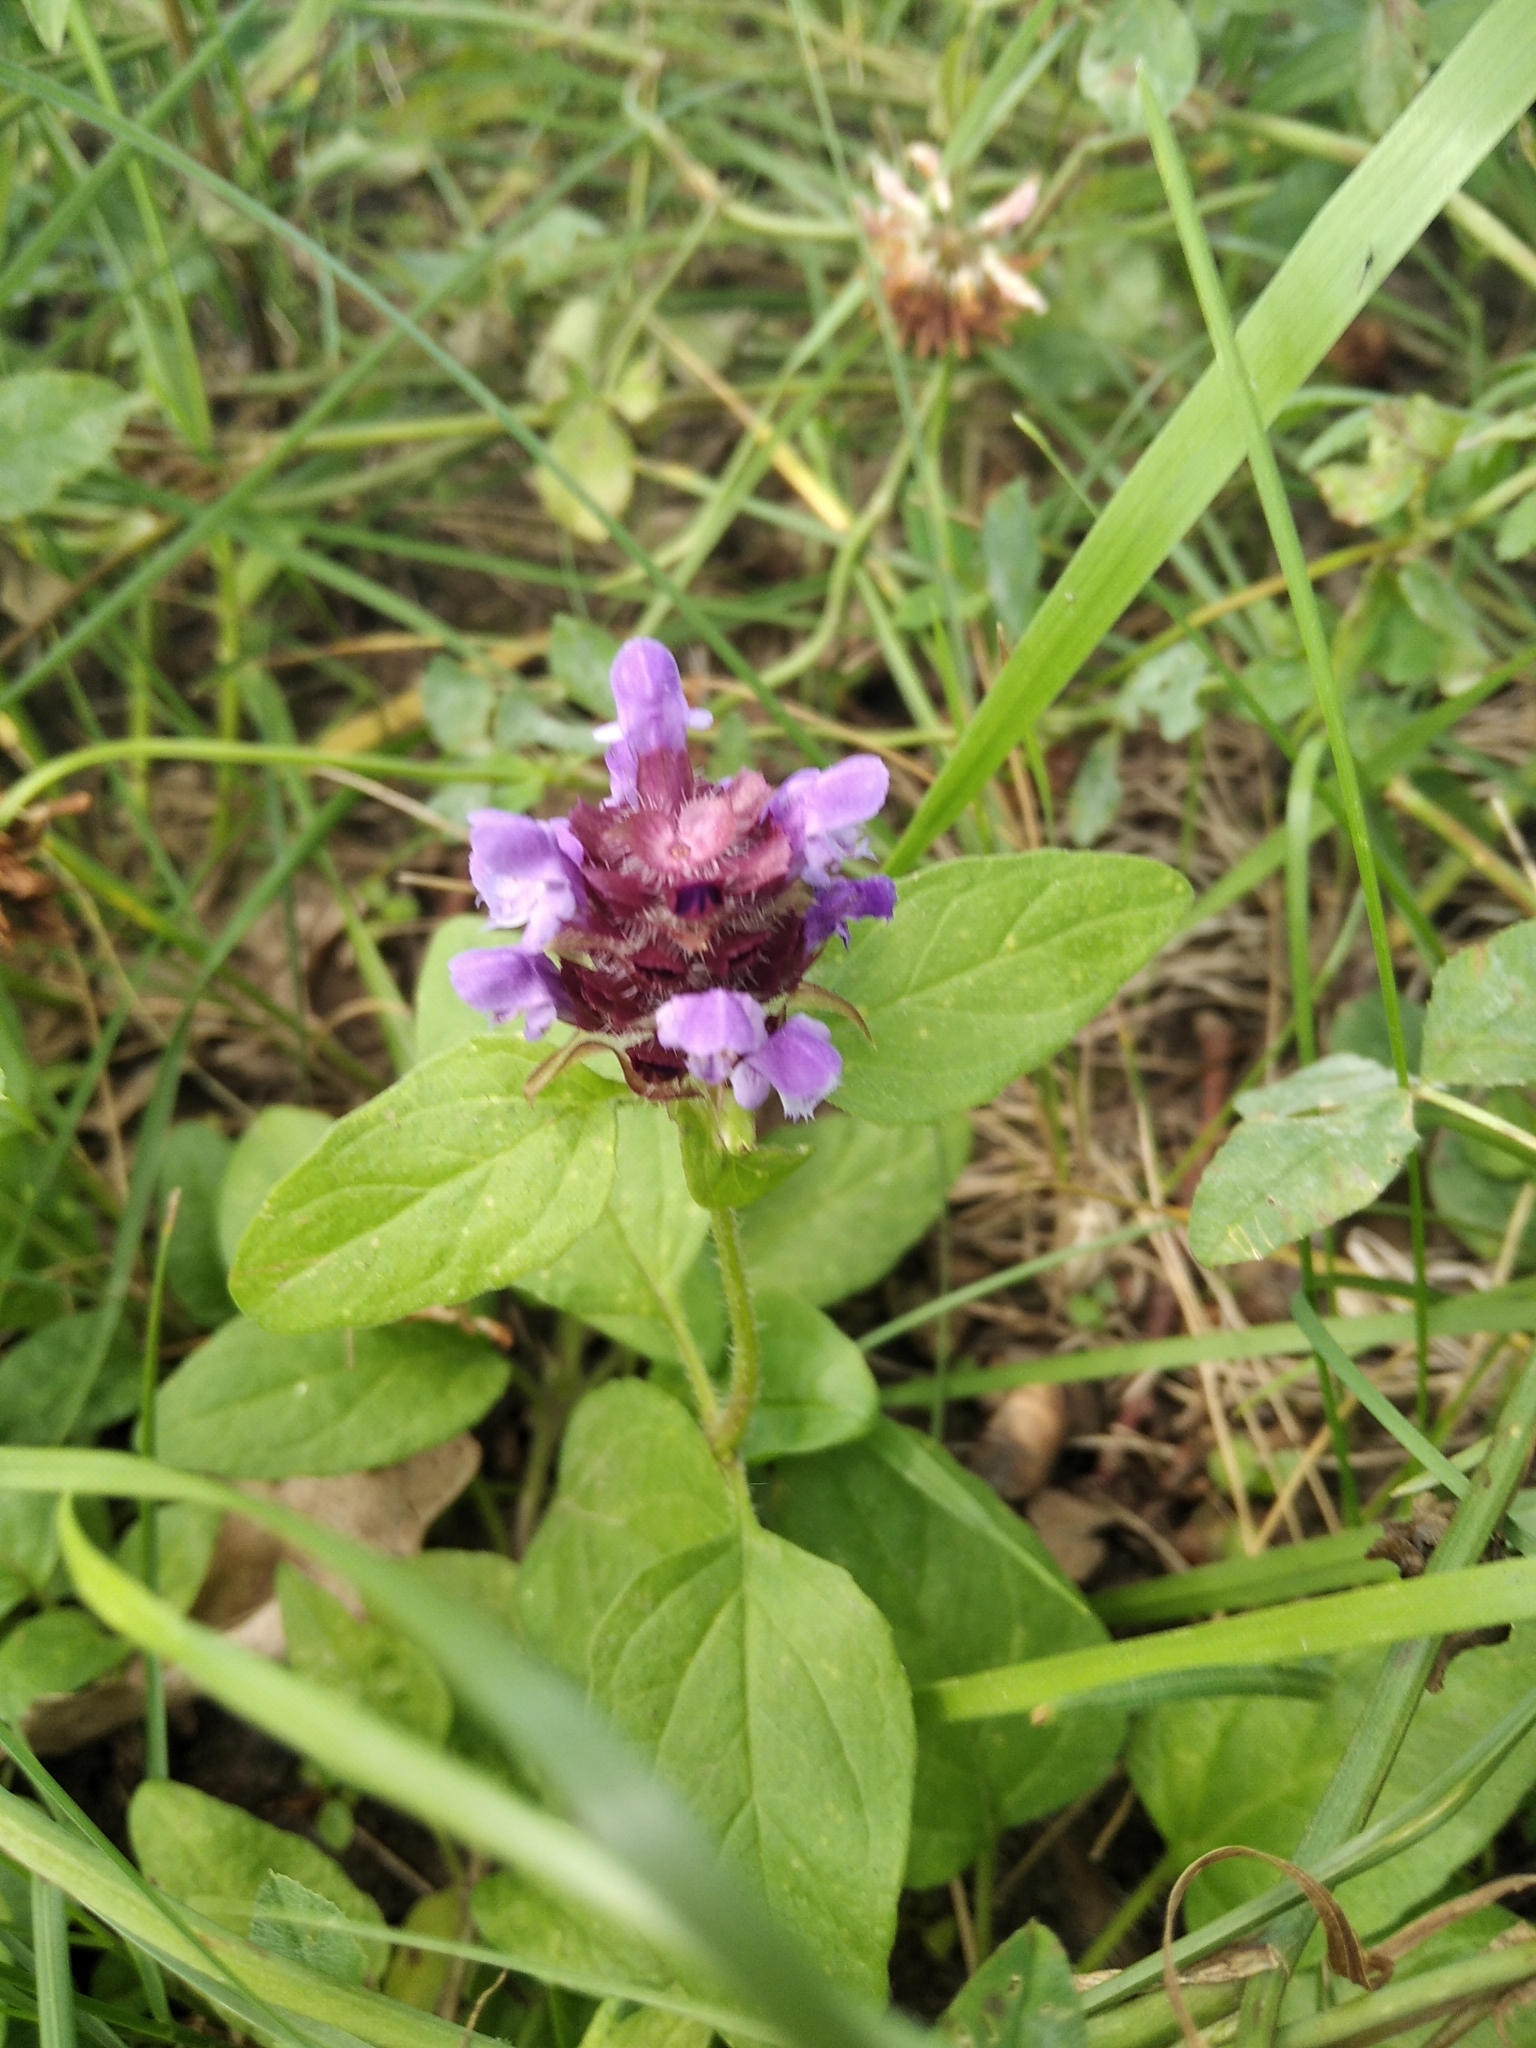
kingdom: Plantae
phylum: Tracheophyta
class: Magnoliopsida
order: Lamiales
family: Lamiaceae
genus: Prunella
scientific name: Prunella vulgaris
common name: Heal-all
